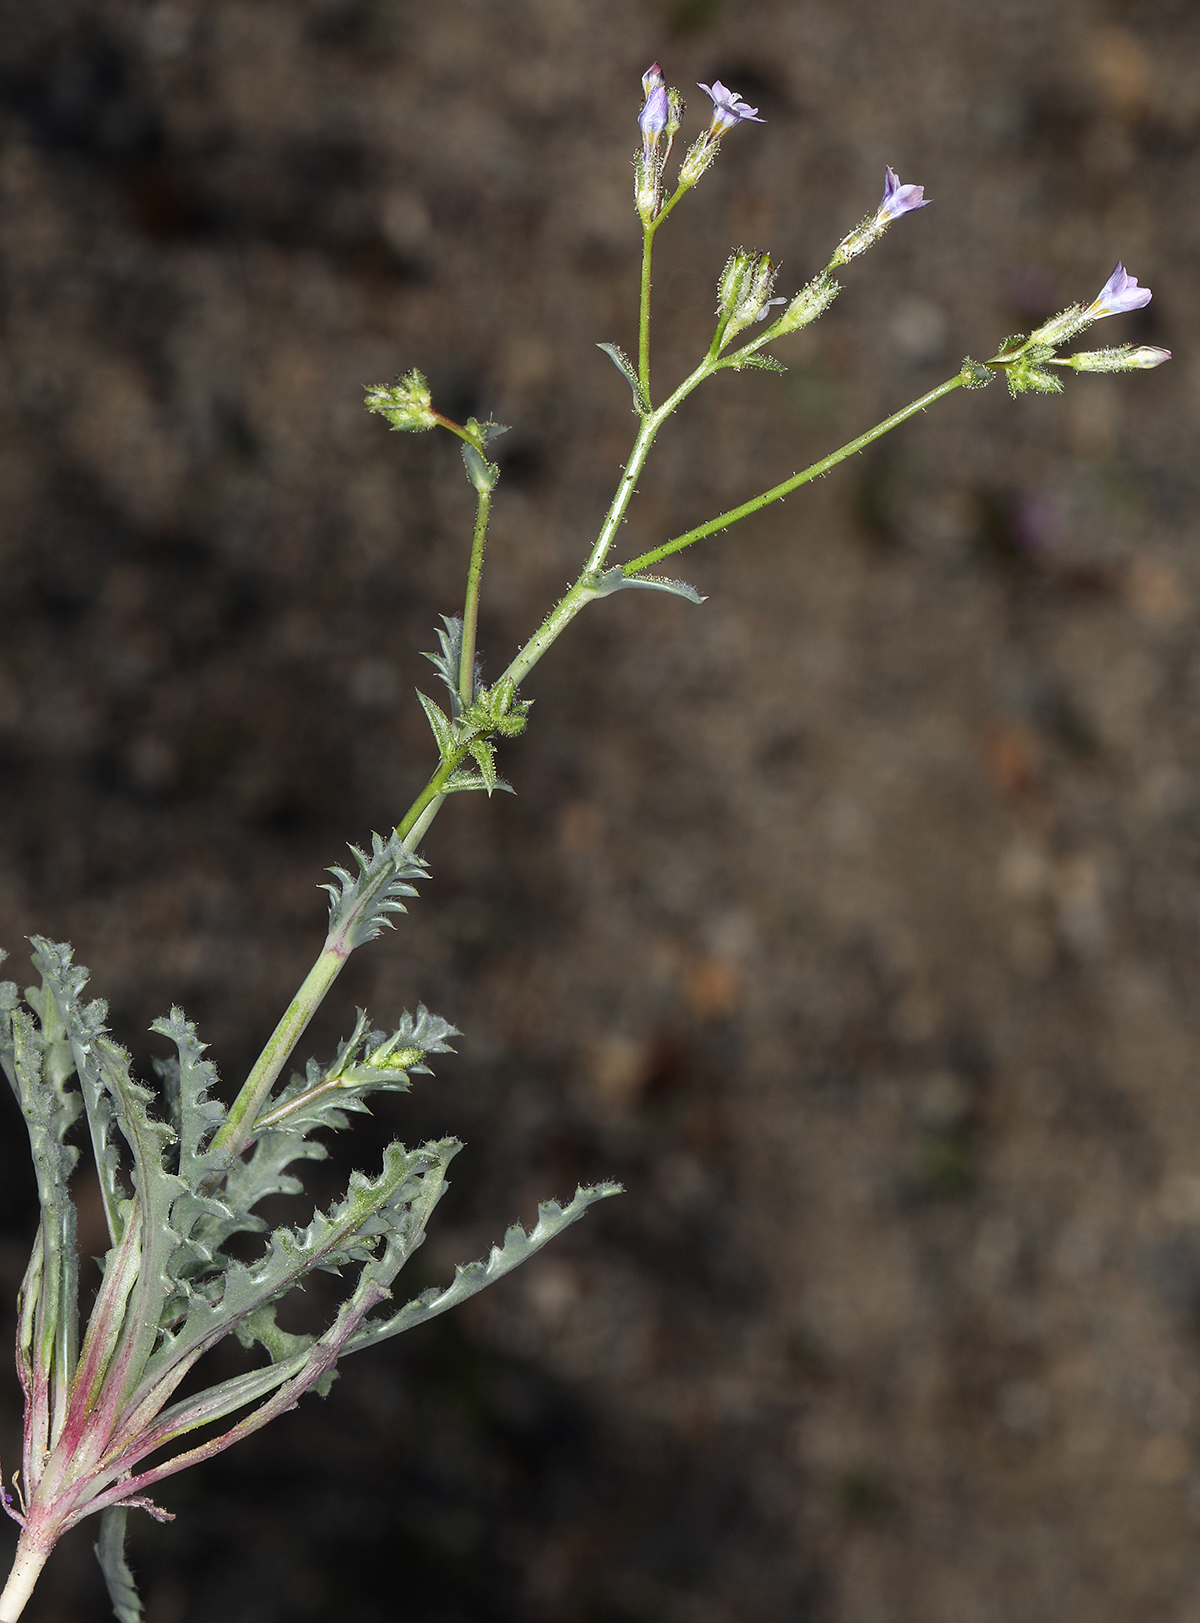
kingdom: Plantae
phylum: Tracheophyta
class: Magnoliopsida
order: Ericales
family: Polemoniaceae
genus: Gilia
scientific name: Gilia sinuata
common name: Rosy gilia
